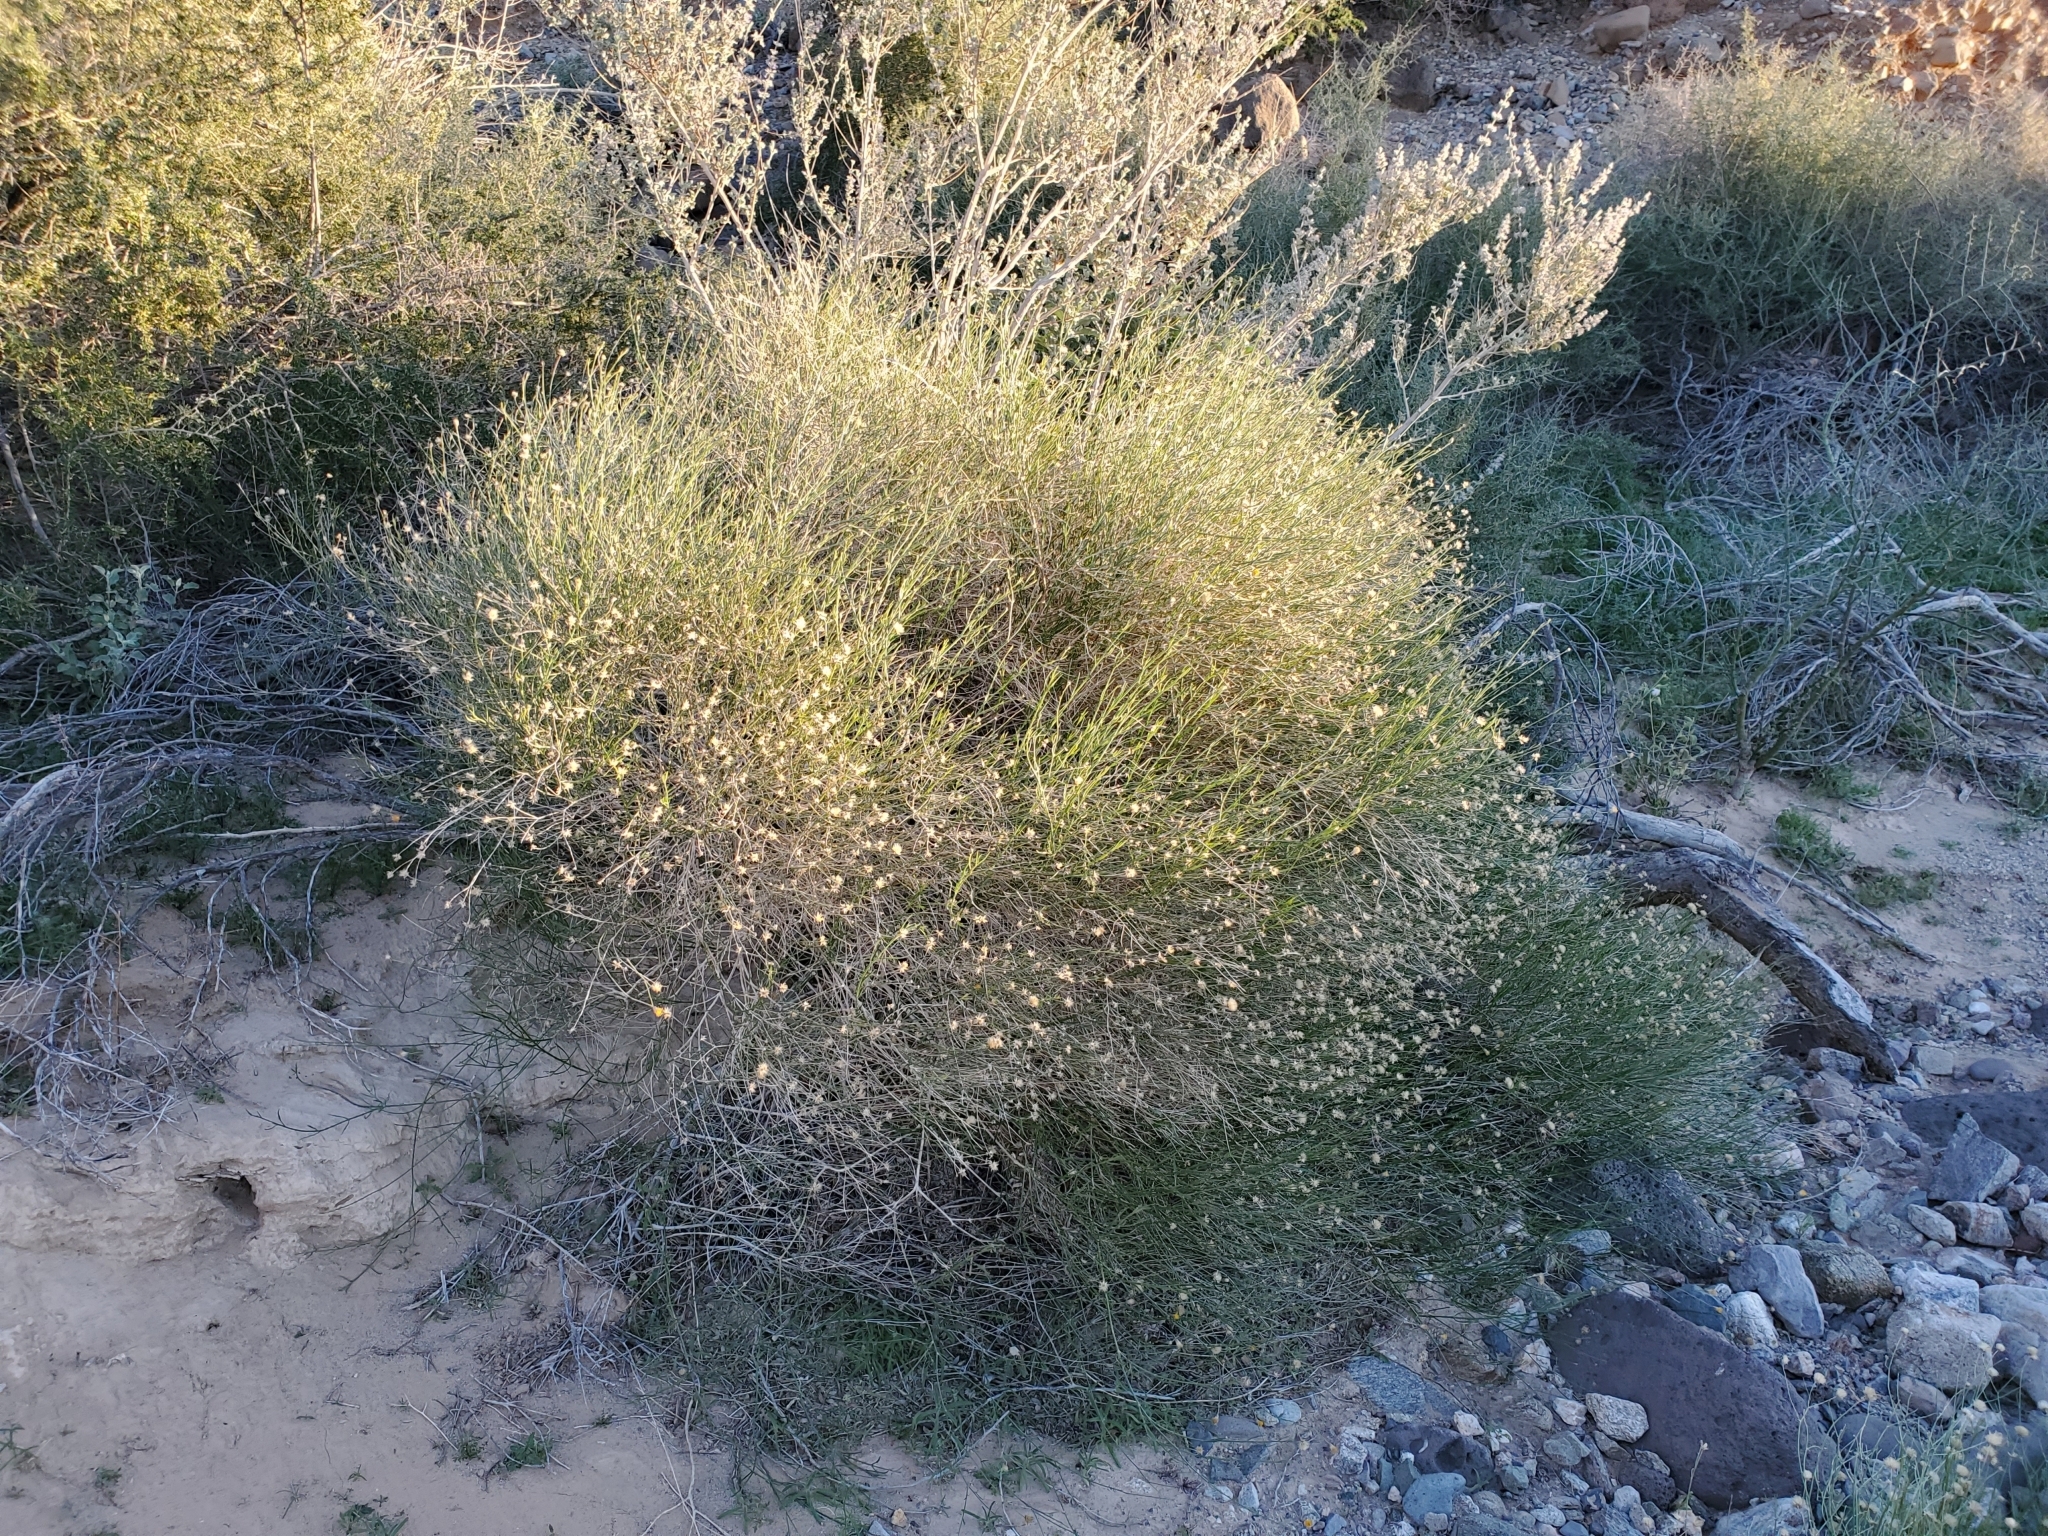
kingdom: Plantae
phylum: Tracheophyta
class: Magnoliopsida
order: Asterales
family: Asteraceae
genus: Bebbia
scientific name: Bebbia juncea
